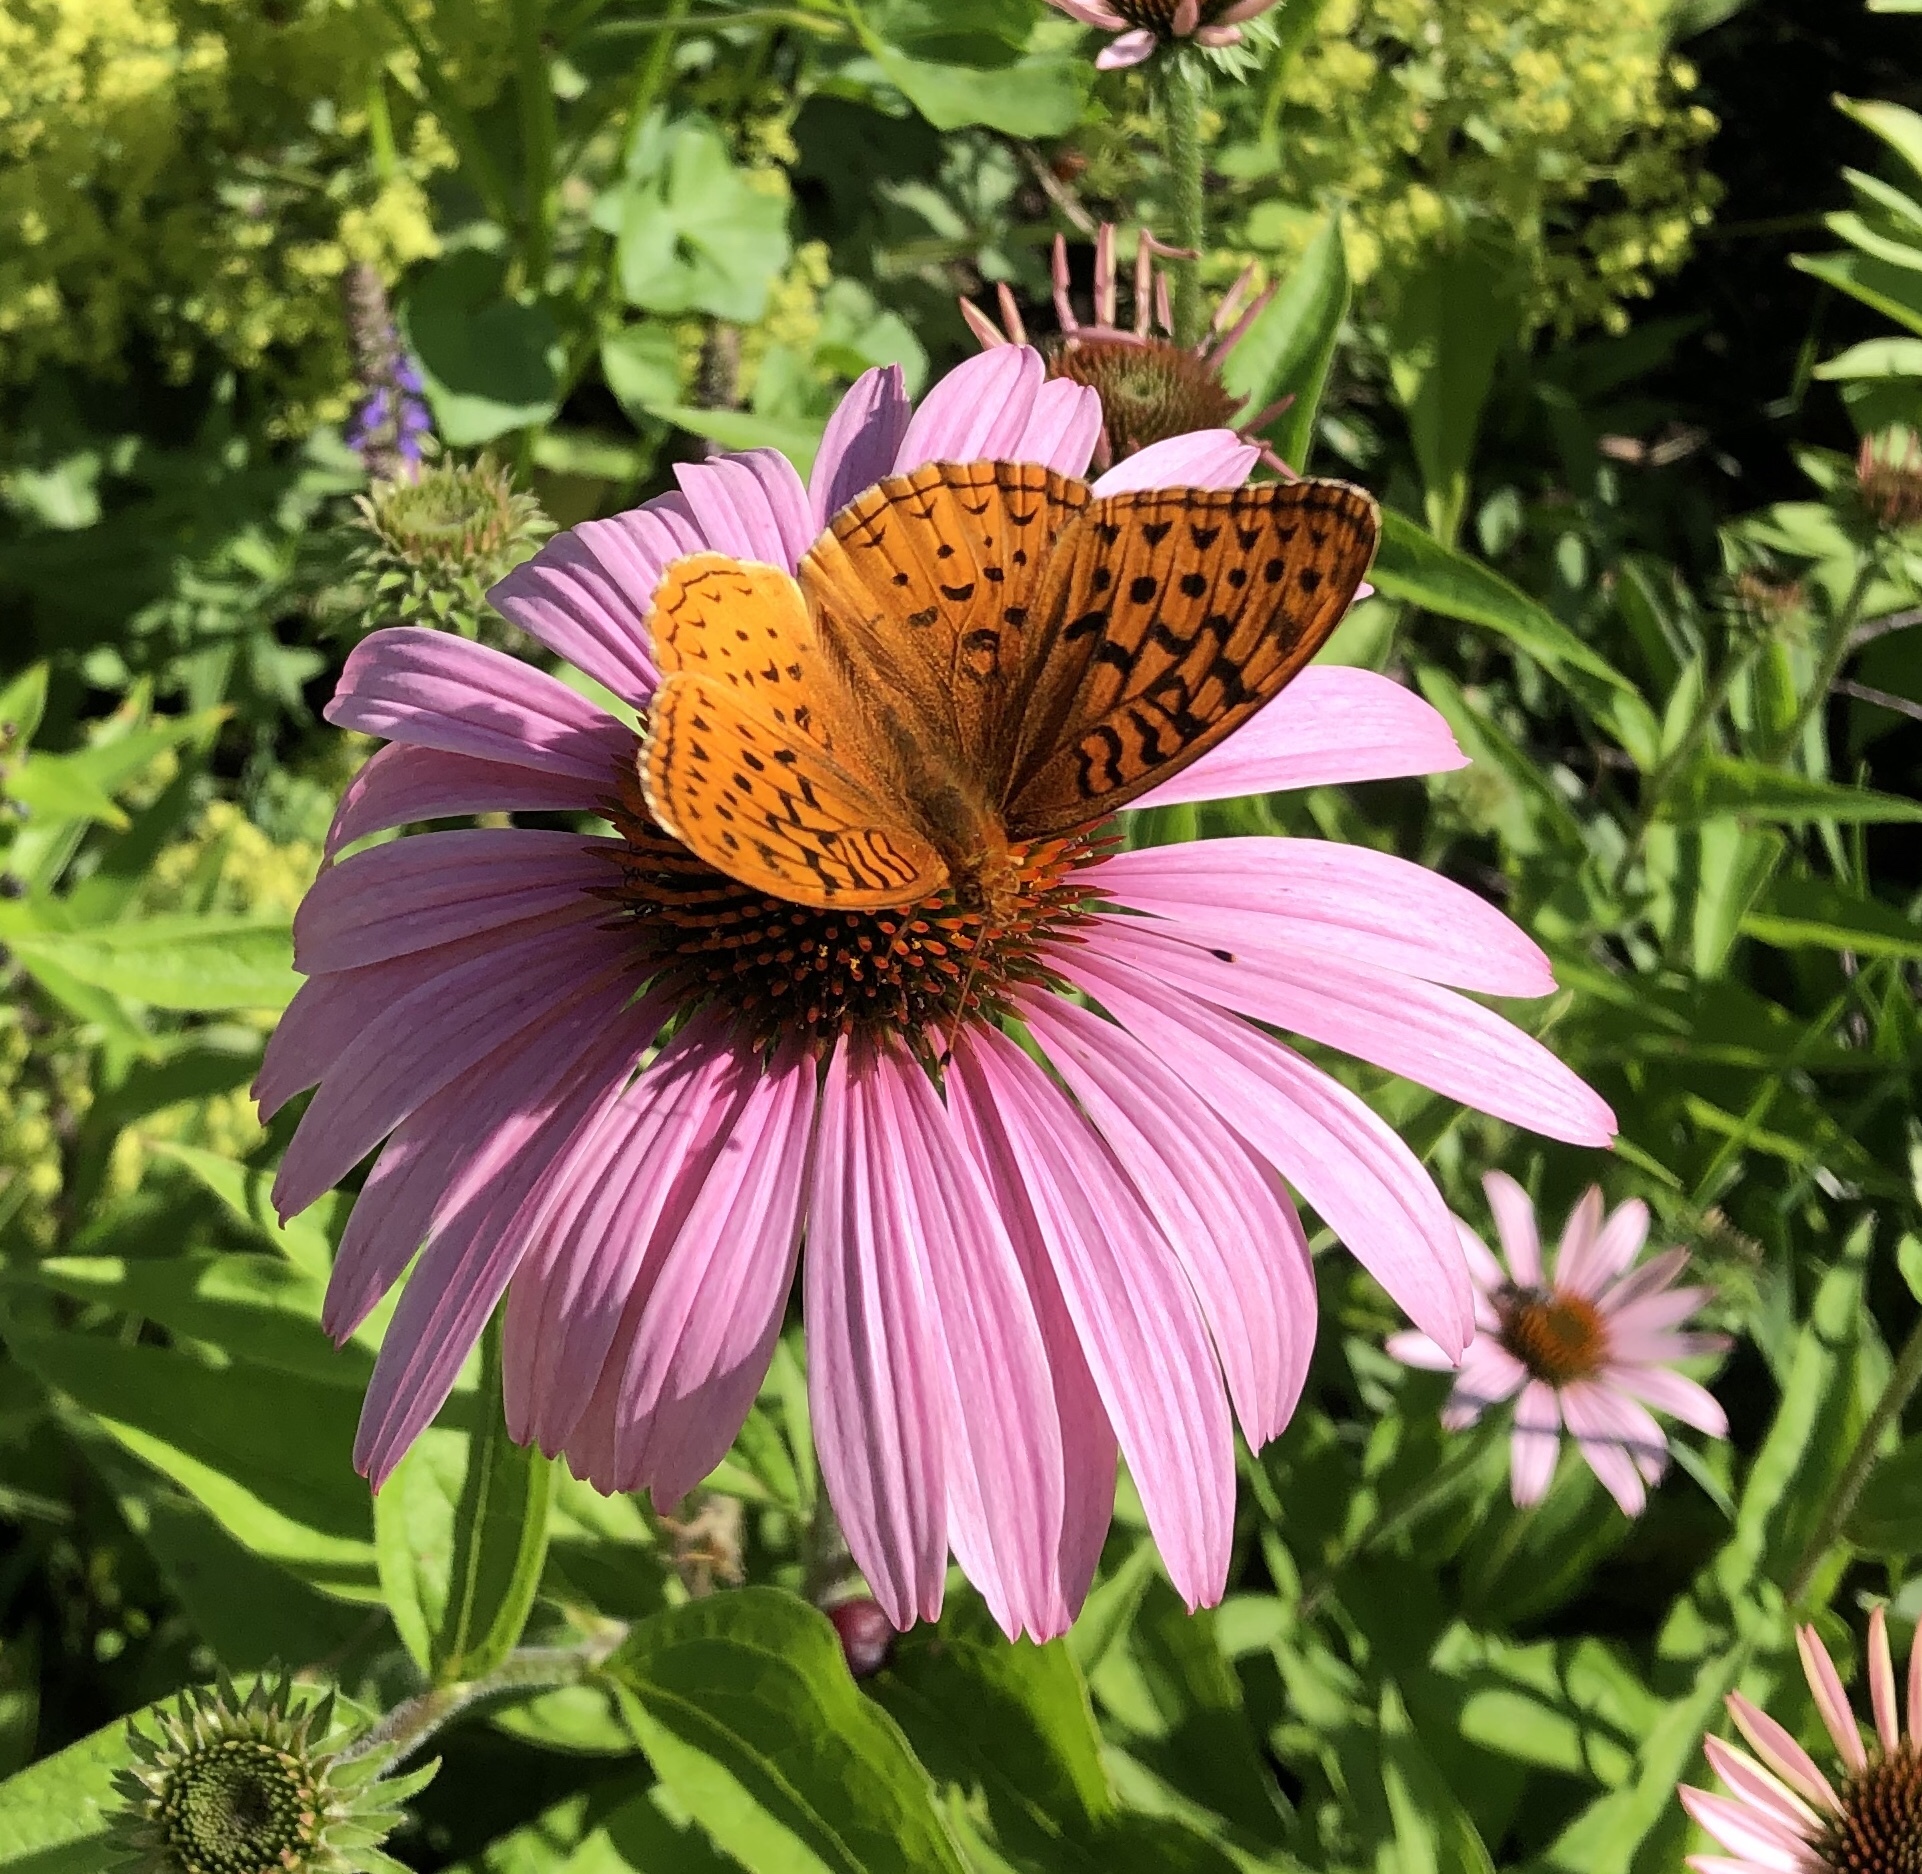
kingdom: Animalia
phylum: Arthropoda
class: Insecta
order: Lepidoptera
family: Nymphalidae
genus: Speyeria
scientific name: Speyeria aphrodite
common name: Aphrodite friitllary
